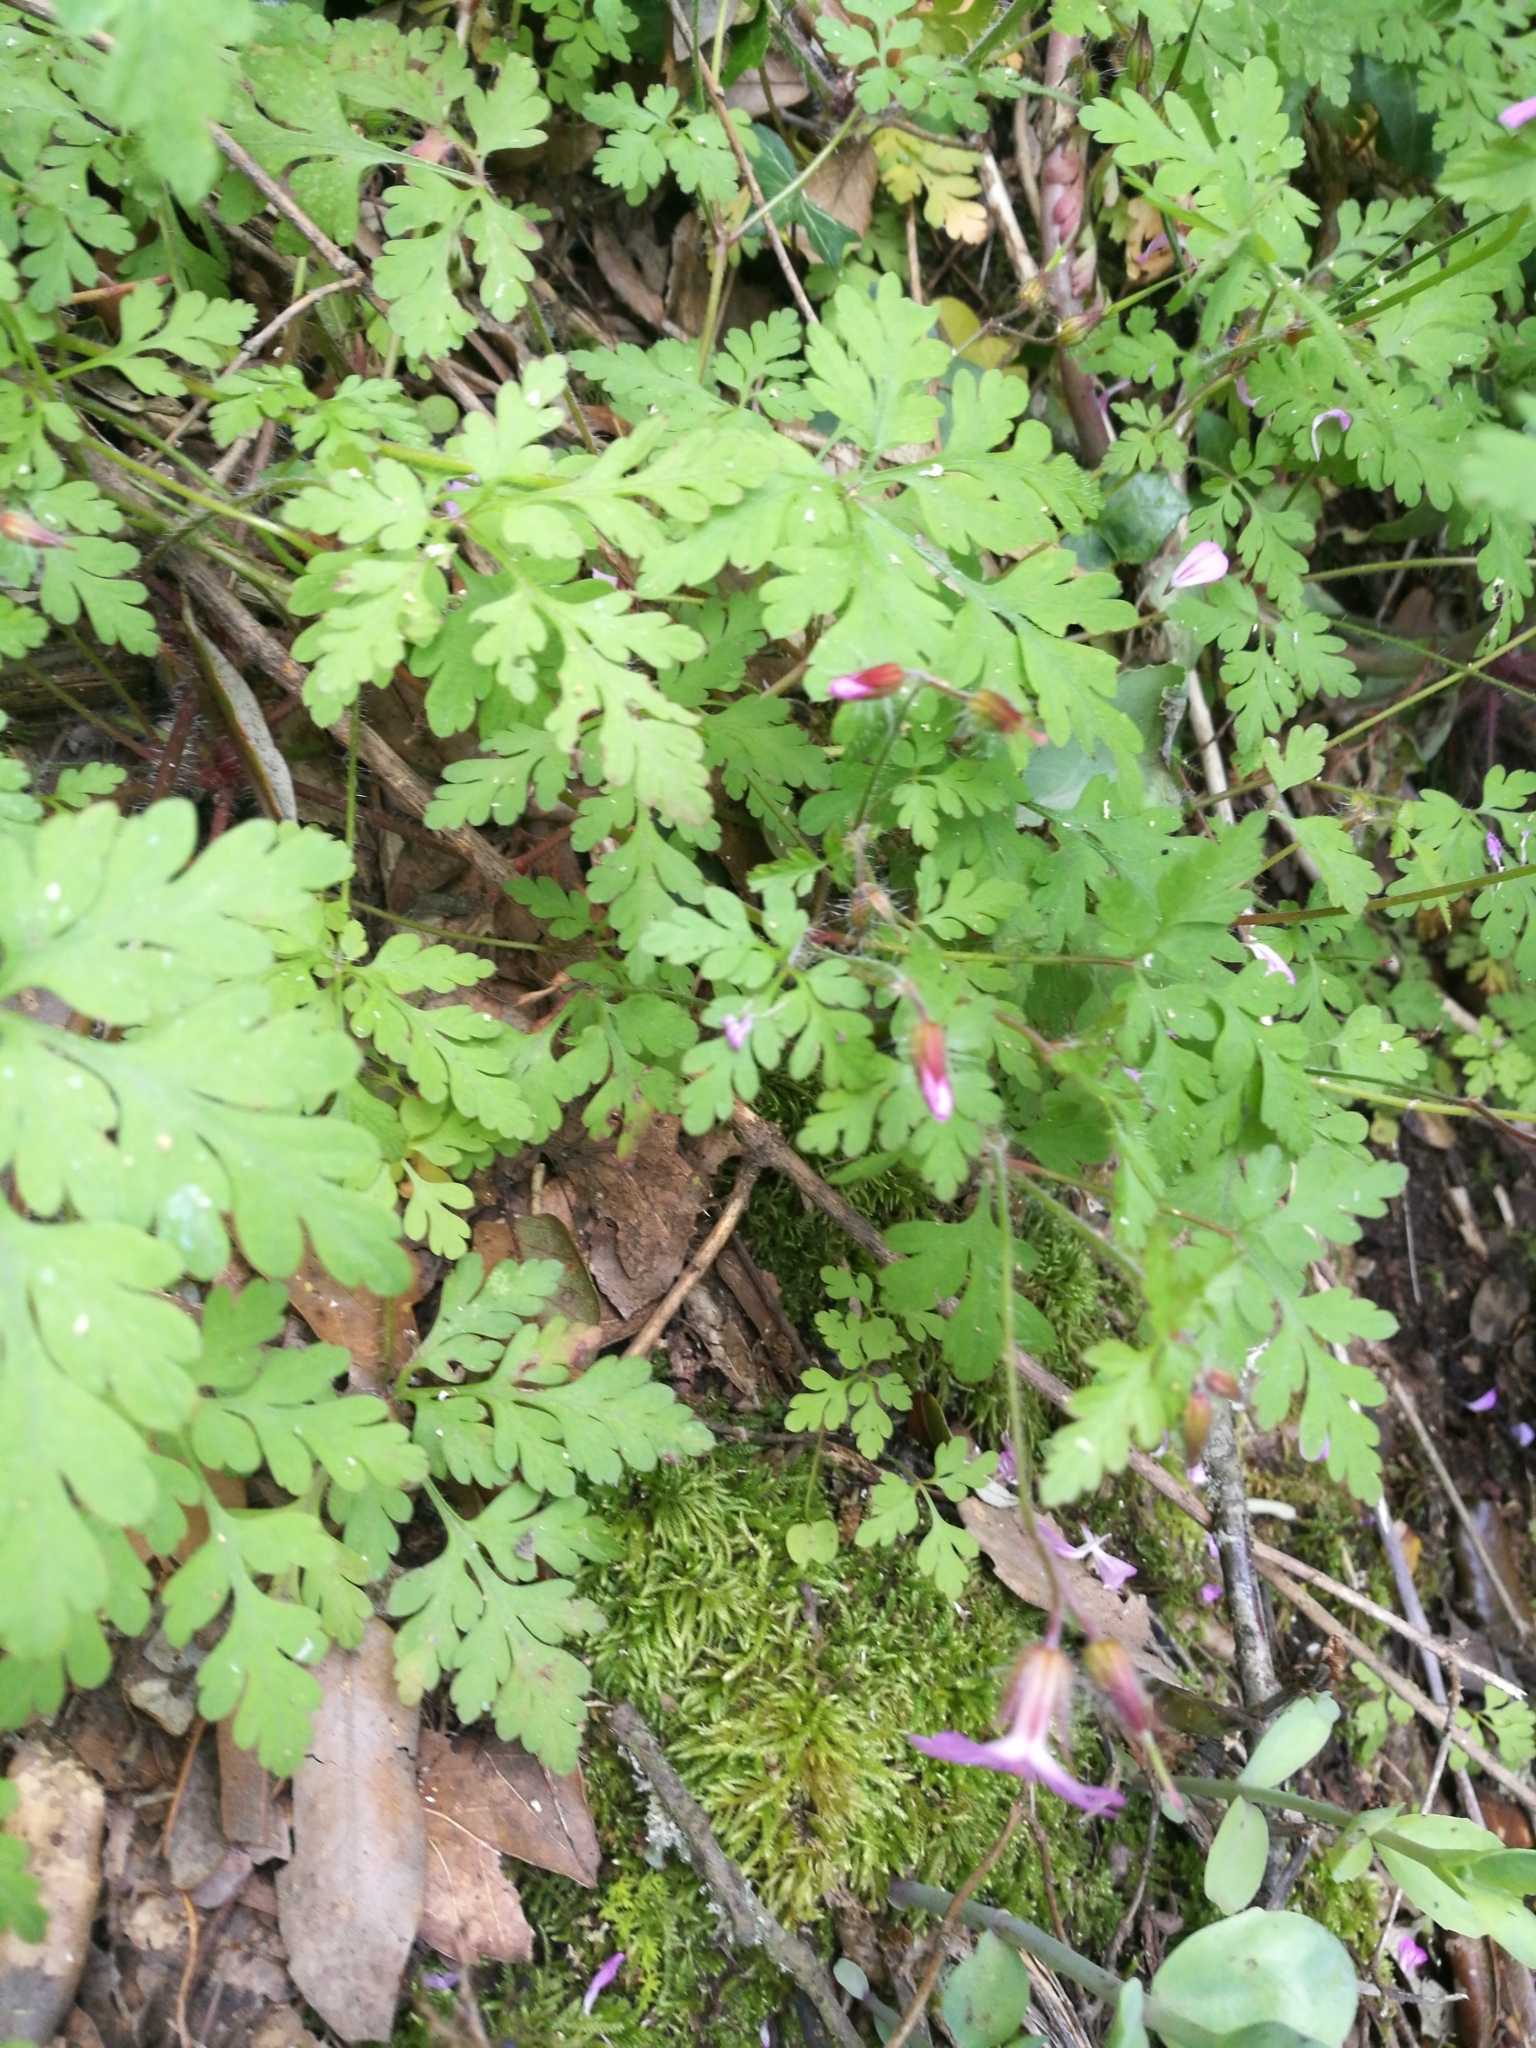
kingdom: Plantae
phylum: Tracheophyta
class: Magnoliopsida
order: Geraniales
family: Geraniaceae
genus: Geranium
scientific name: Geranium robertianum
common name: Herb-robert
